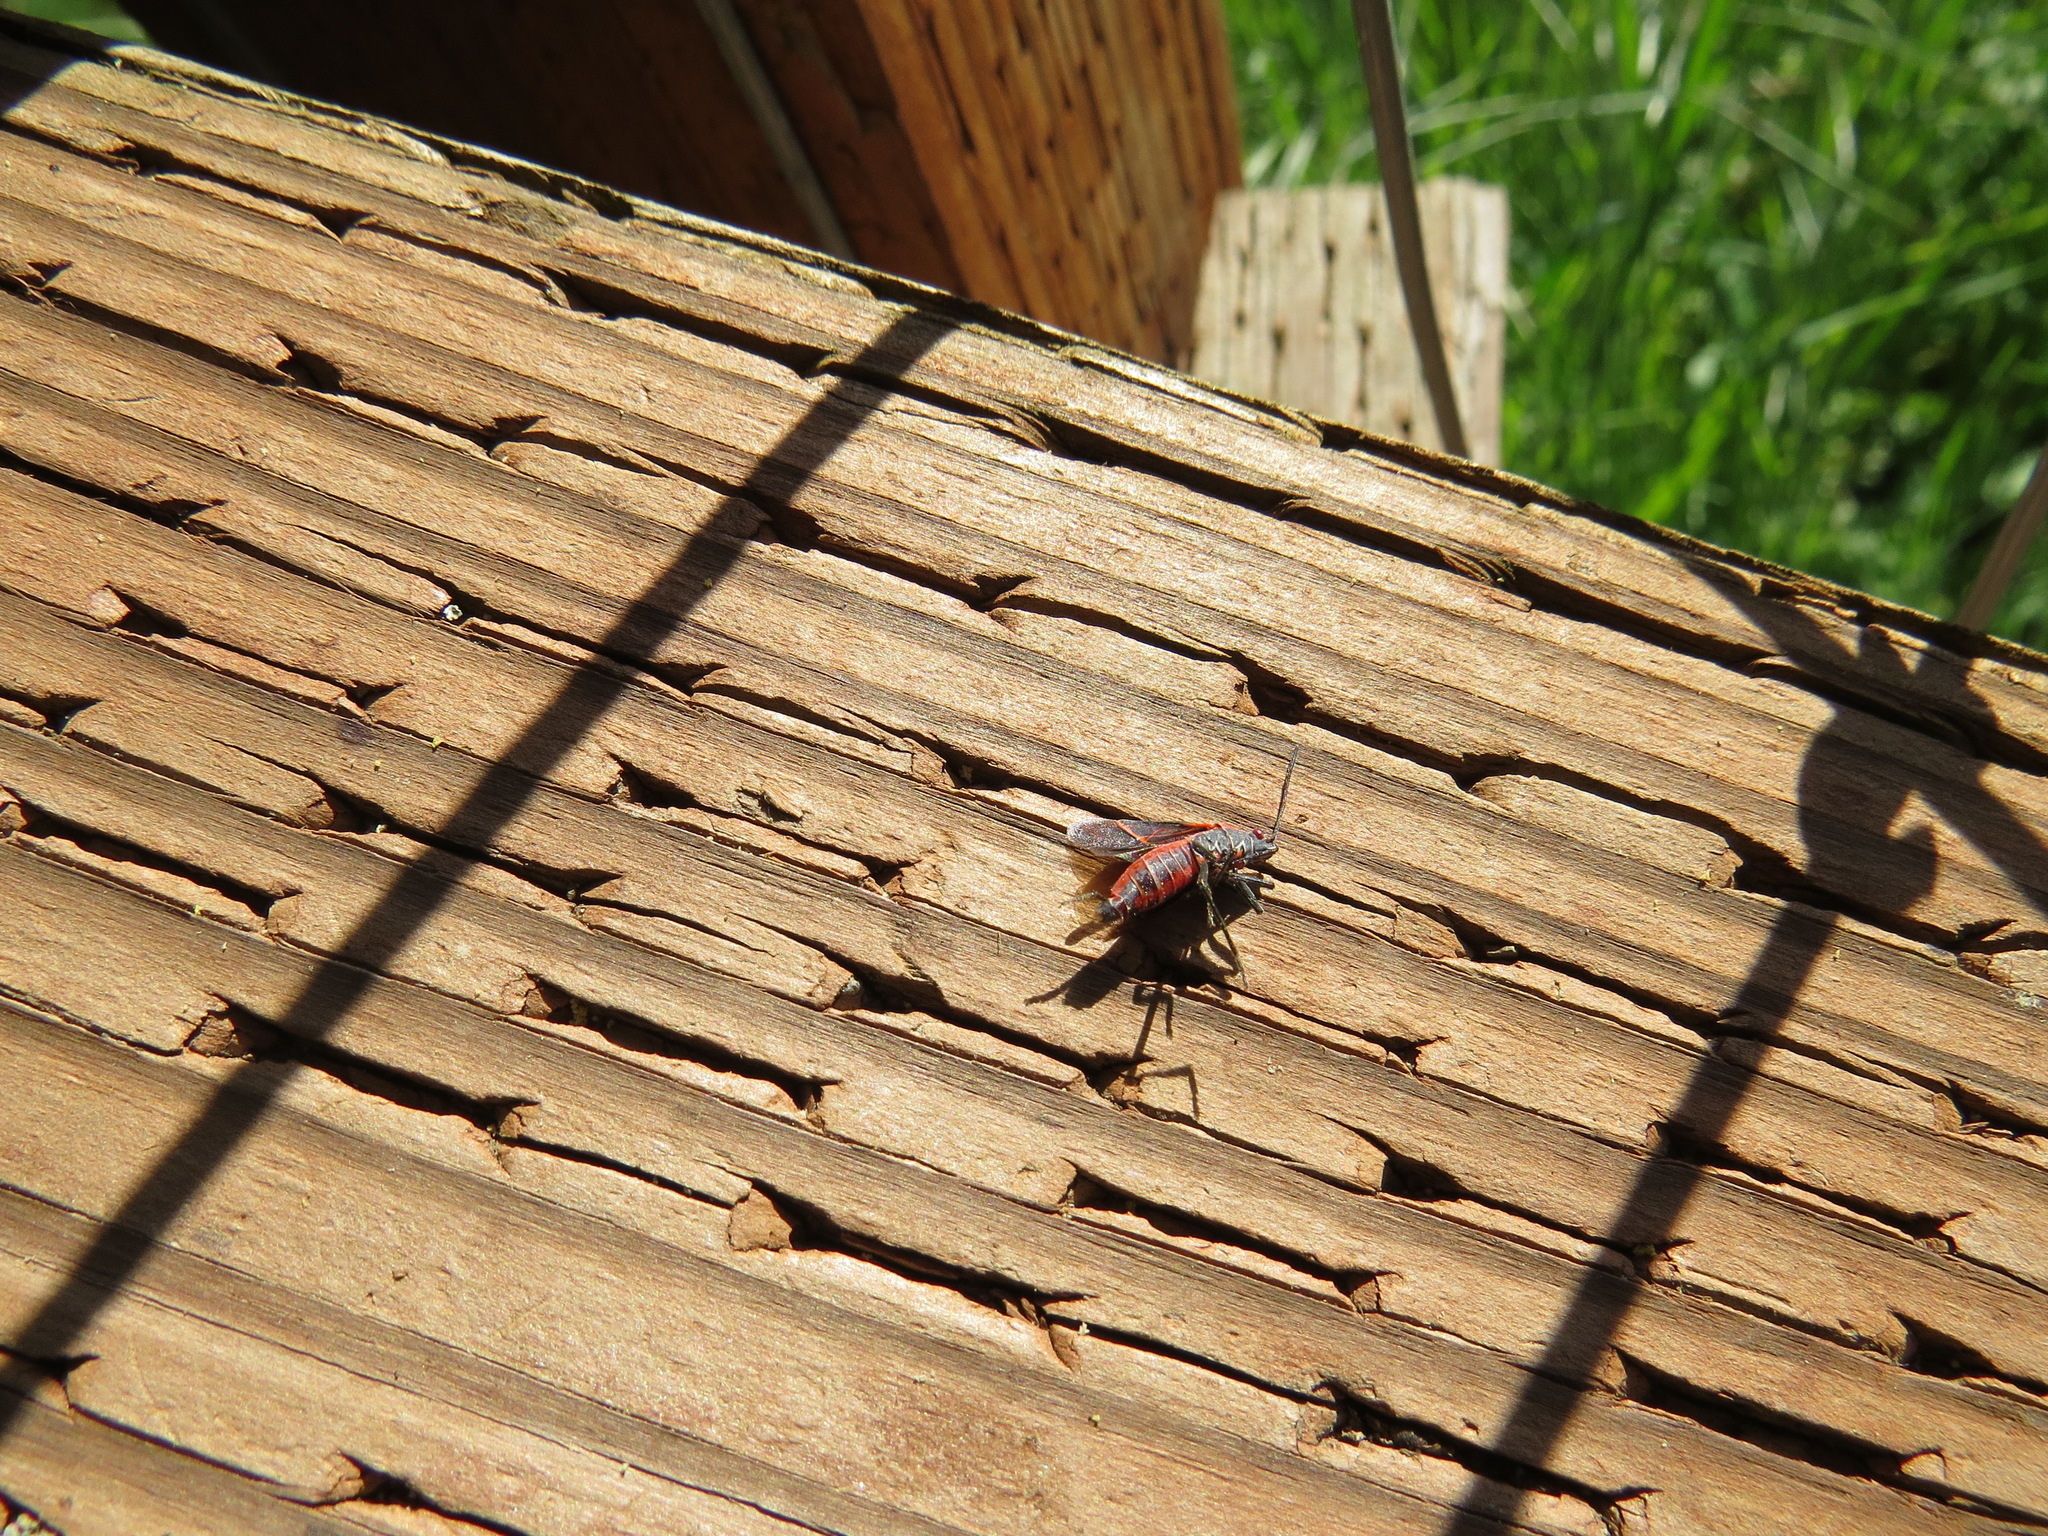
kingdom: Animalia
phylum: Arthropoda
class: Insecta
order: Hemiptera
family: Rhopalidae
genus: Boisea
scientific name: Boisea rubrolineata
